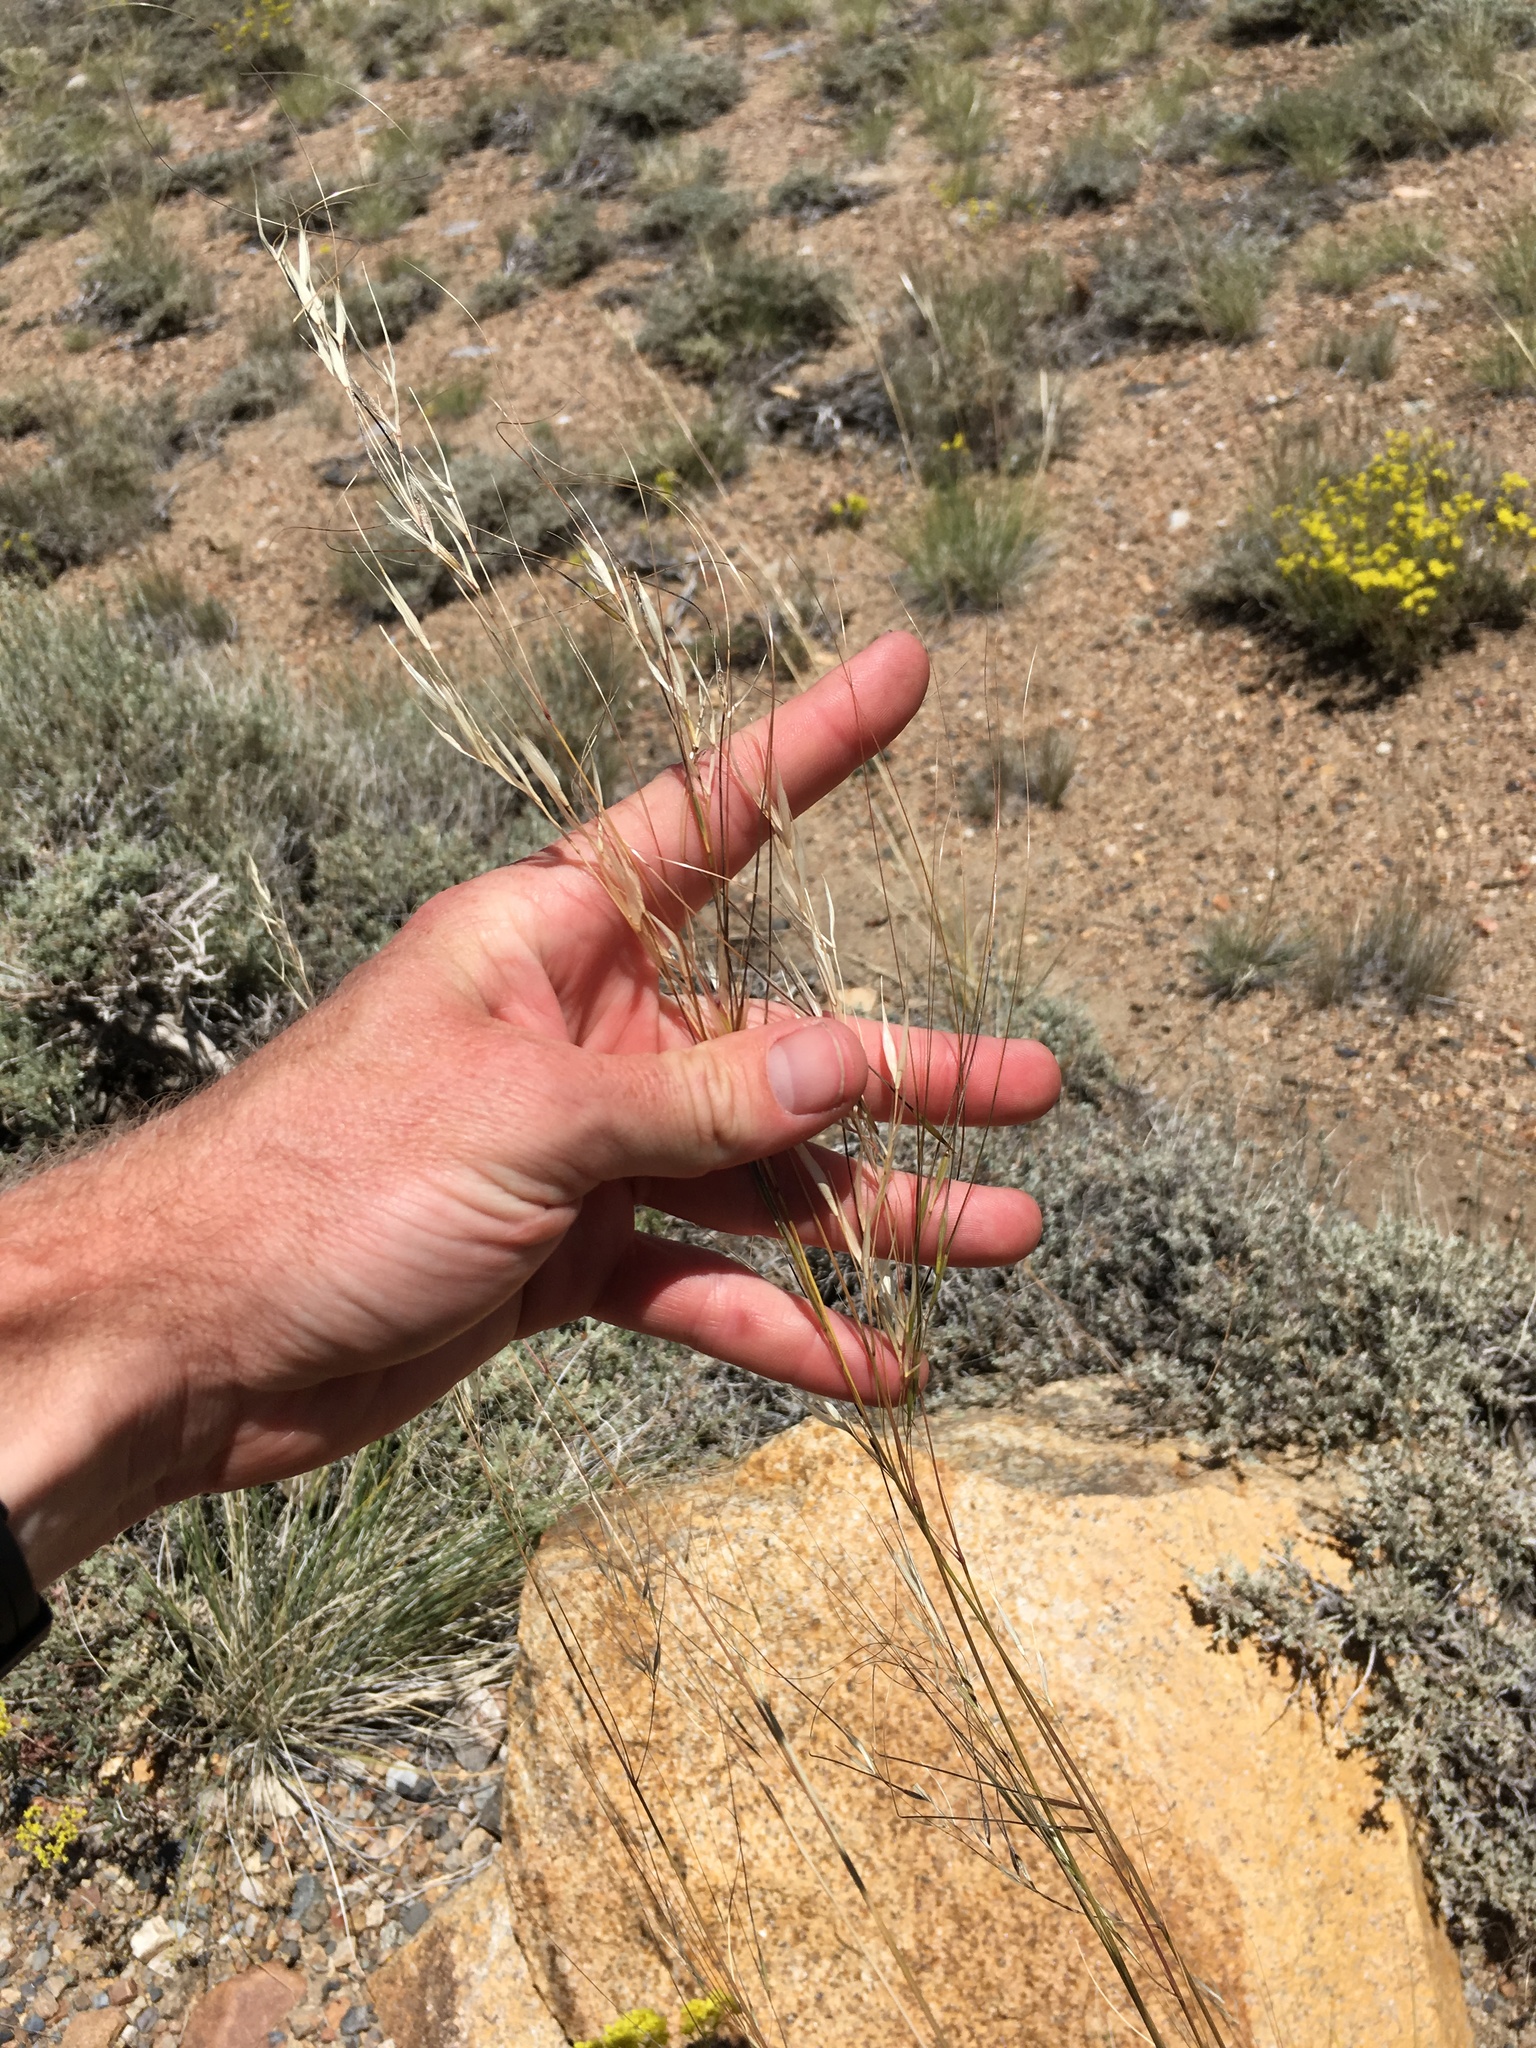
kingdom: Plantae
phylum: Tracheophyta
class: Liliopsida
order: Poales
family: Poaceae
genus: Hesperostipa
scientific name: Hesperostipa comata
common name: Needle-and-thread grass
